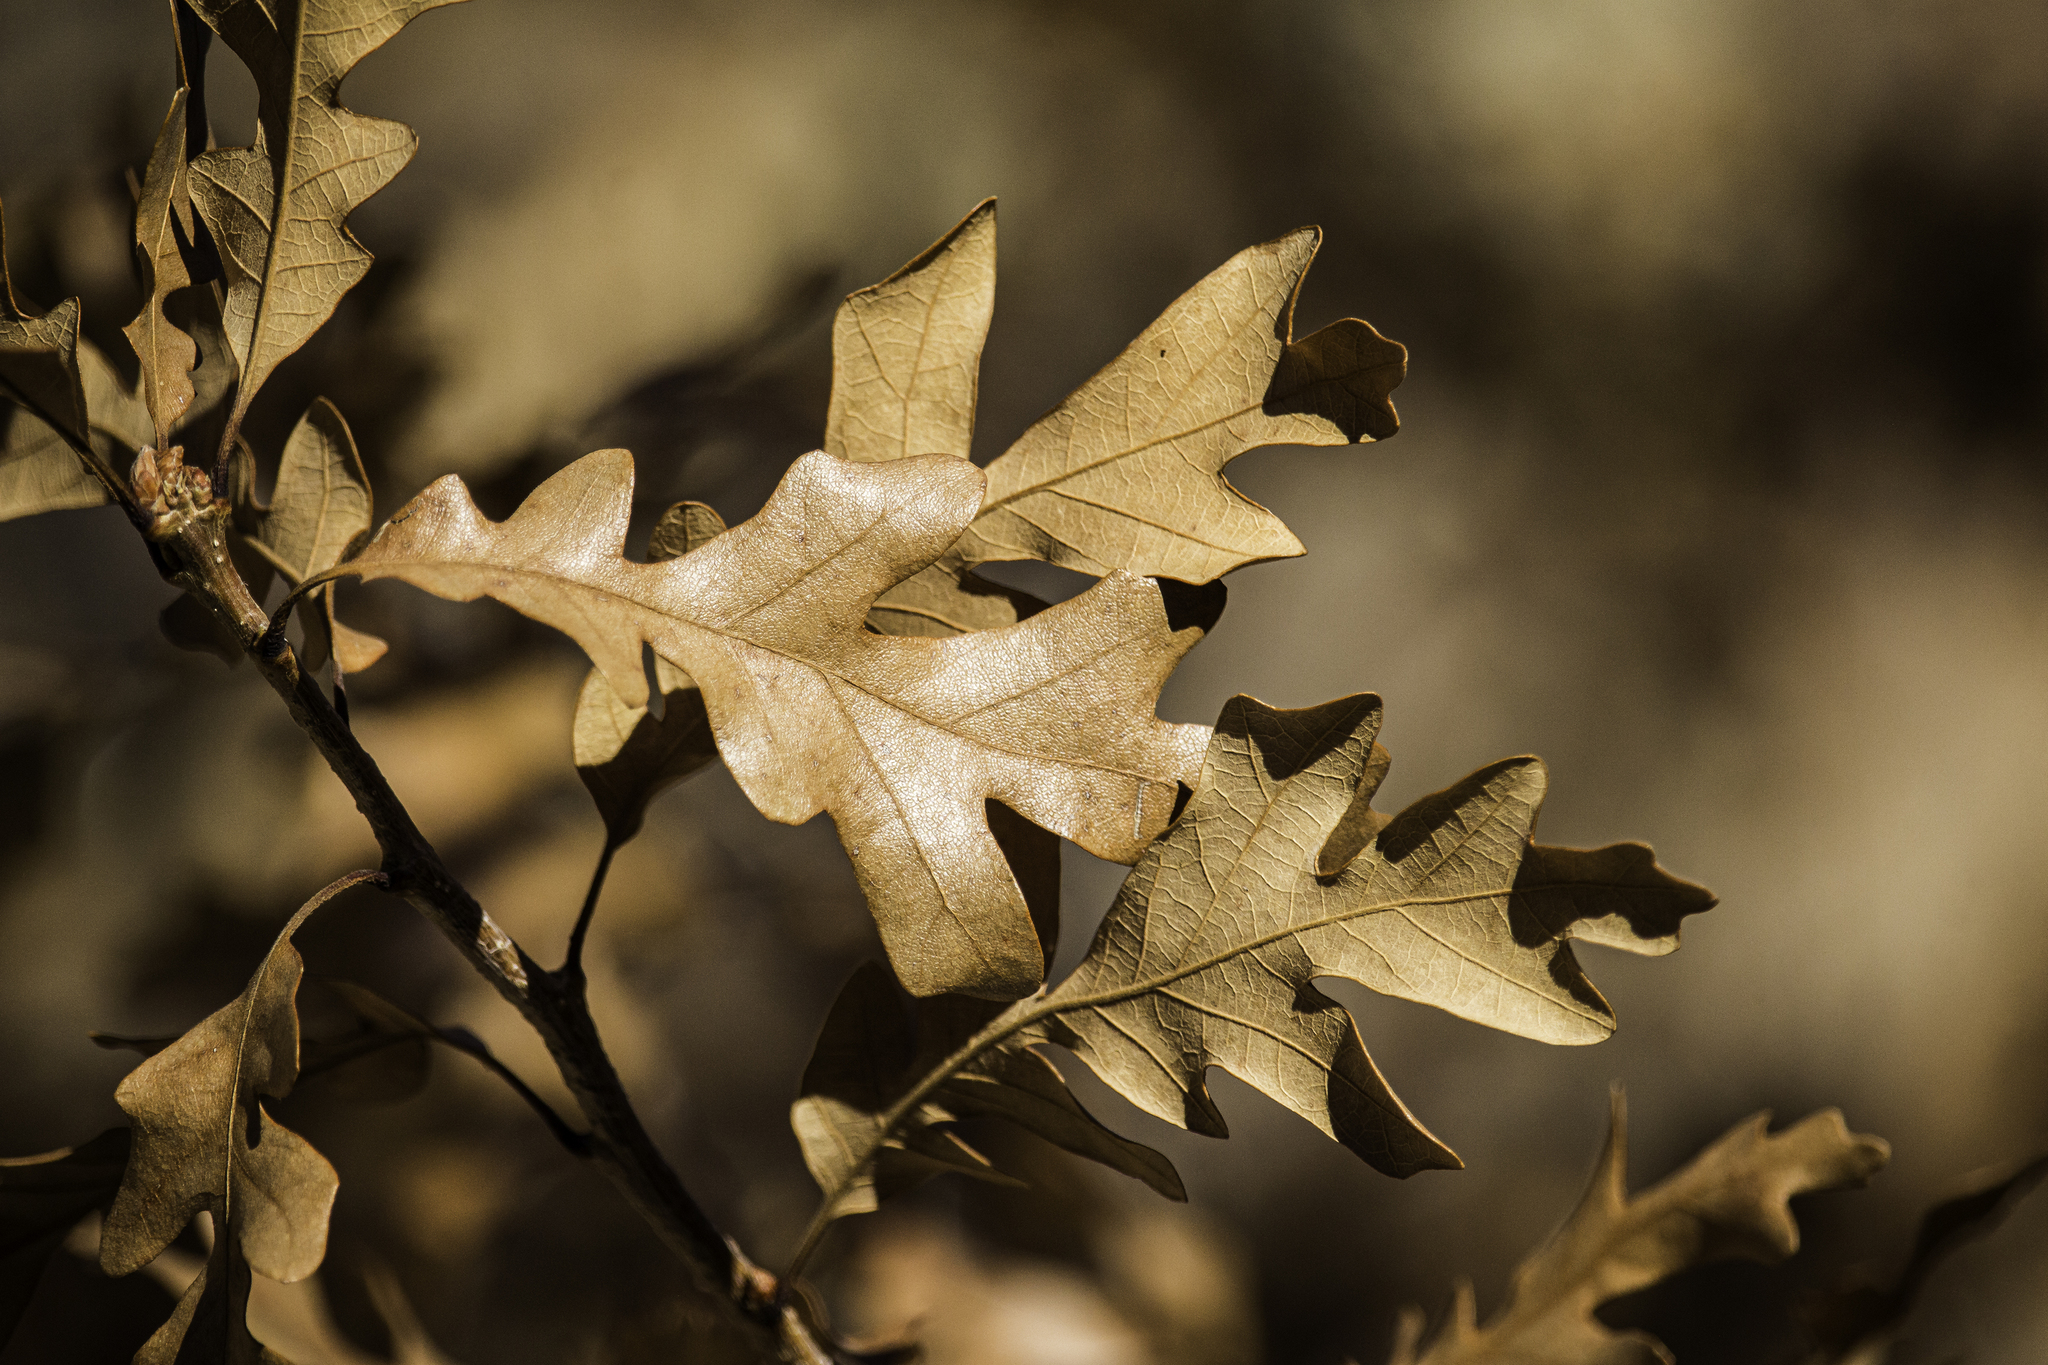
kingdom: Plantae
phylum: Tracheophyta
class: Magnoliopsida
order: Fagales
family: Fagaceae
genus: Quercus
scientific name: Quercus gambelii
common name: Gambel oak
